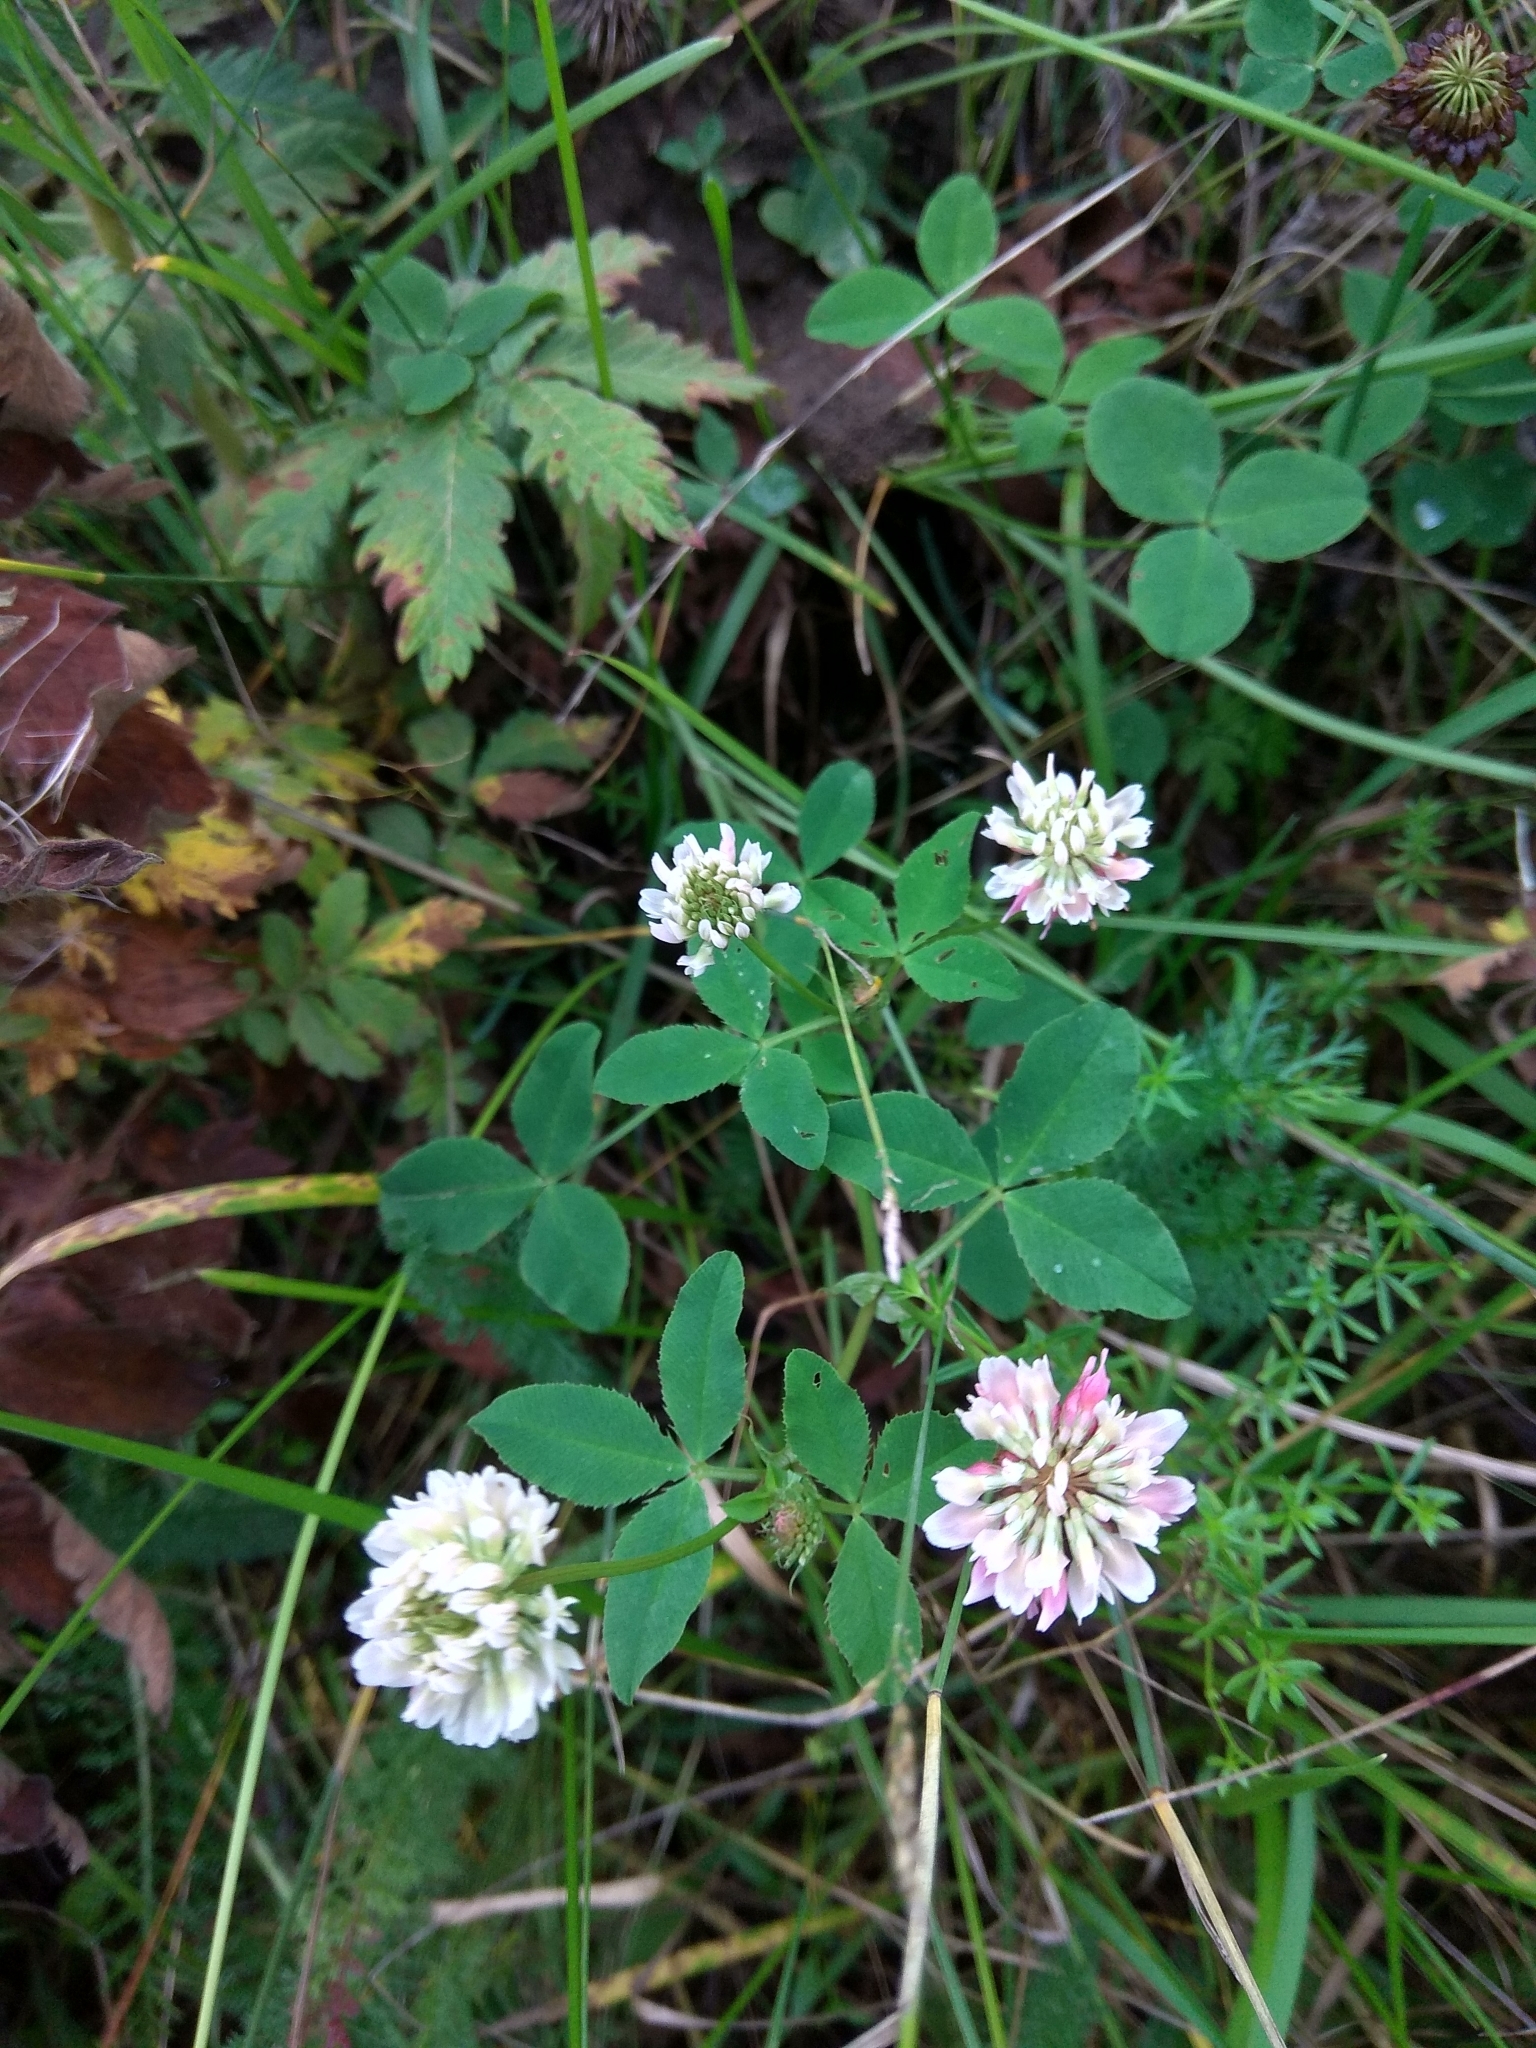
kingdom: Plantae
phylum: Tracheophyta
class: Magnoliopsida
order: Fabales
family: Fabaceae
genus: Trifolium
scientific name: Trifolium hybridum
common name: Alsike clover
